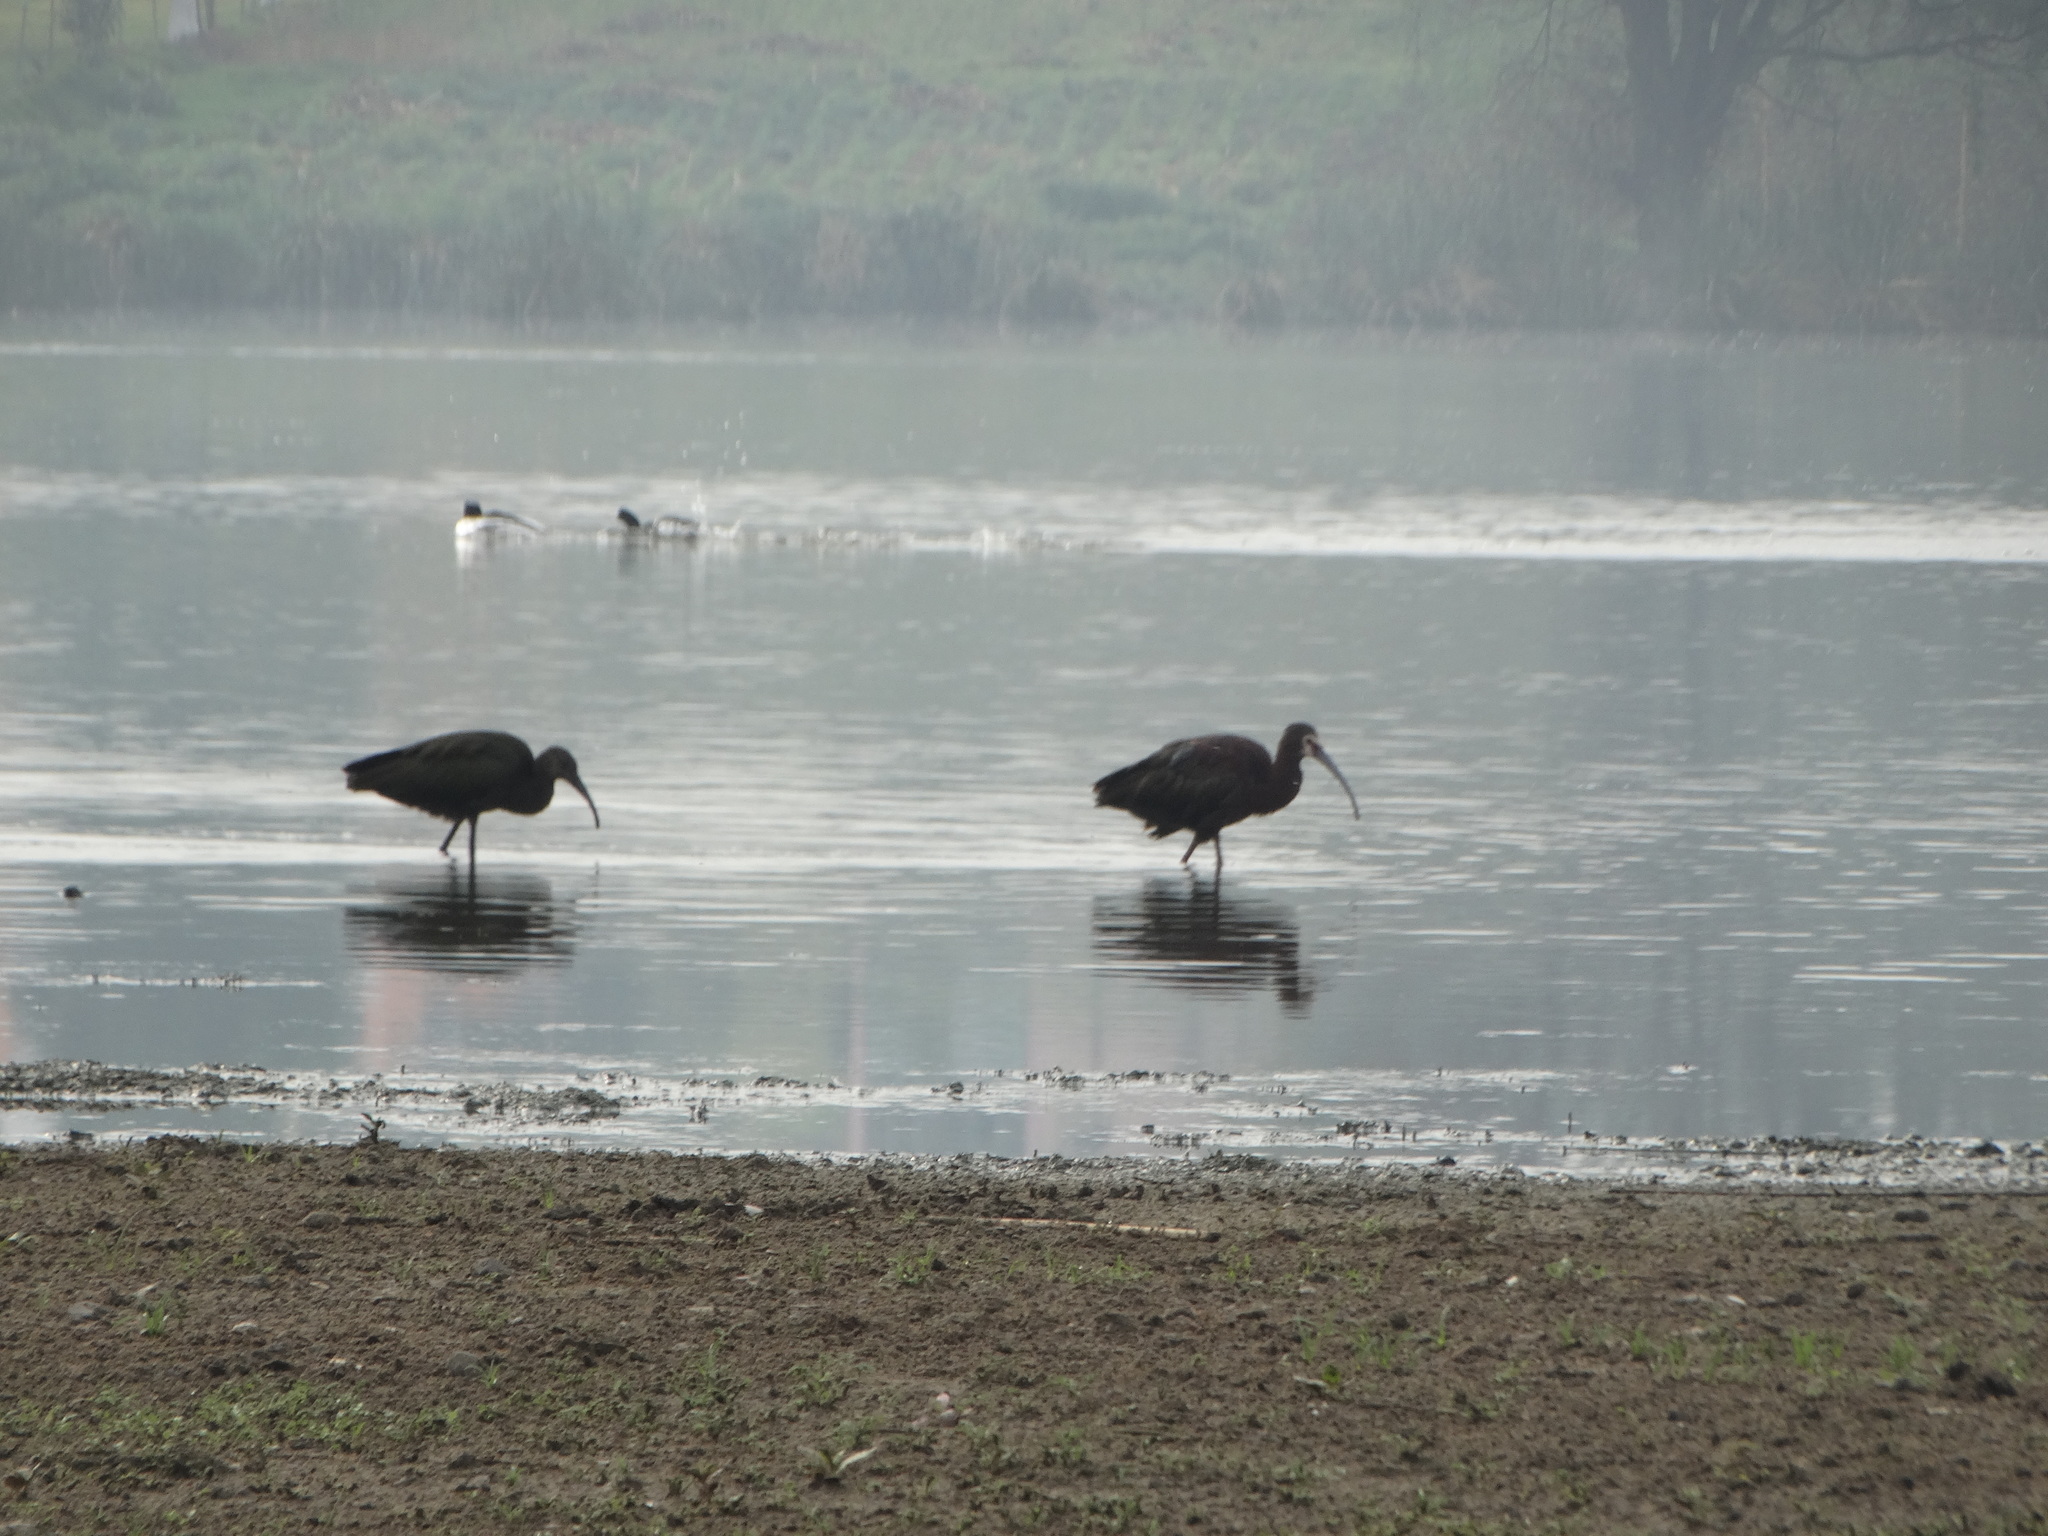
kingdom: Animalia
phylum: Chordata
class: Aves
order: Pelecaniformes
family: Threskiornithidae
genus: Plegadis
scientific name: Plegadis chihi
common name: White-faced ibis
